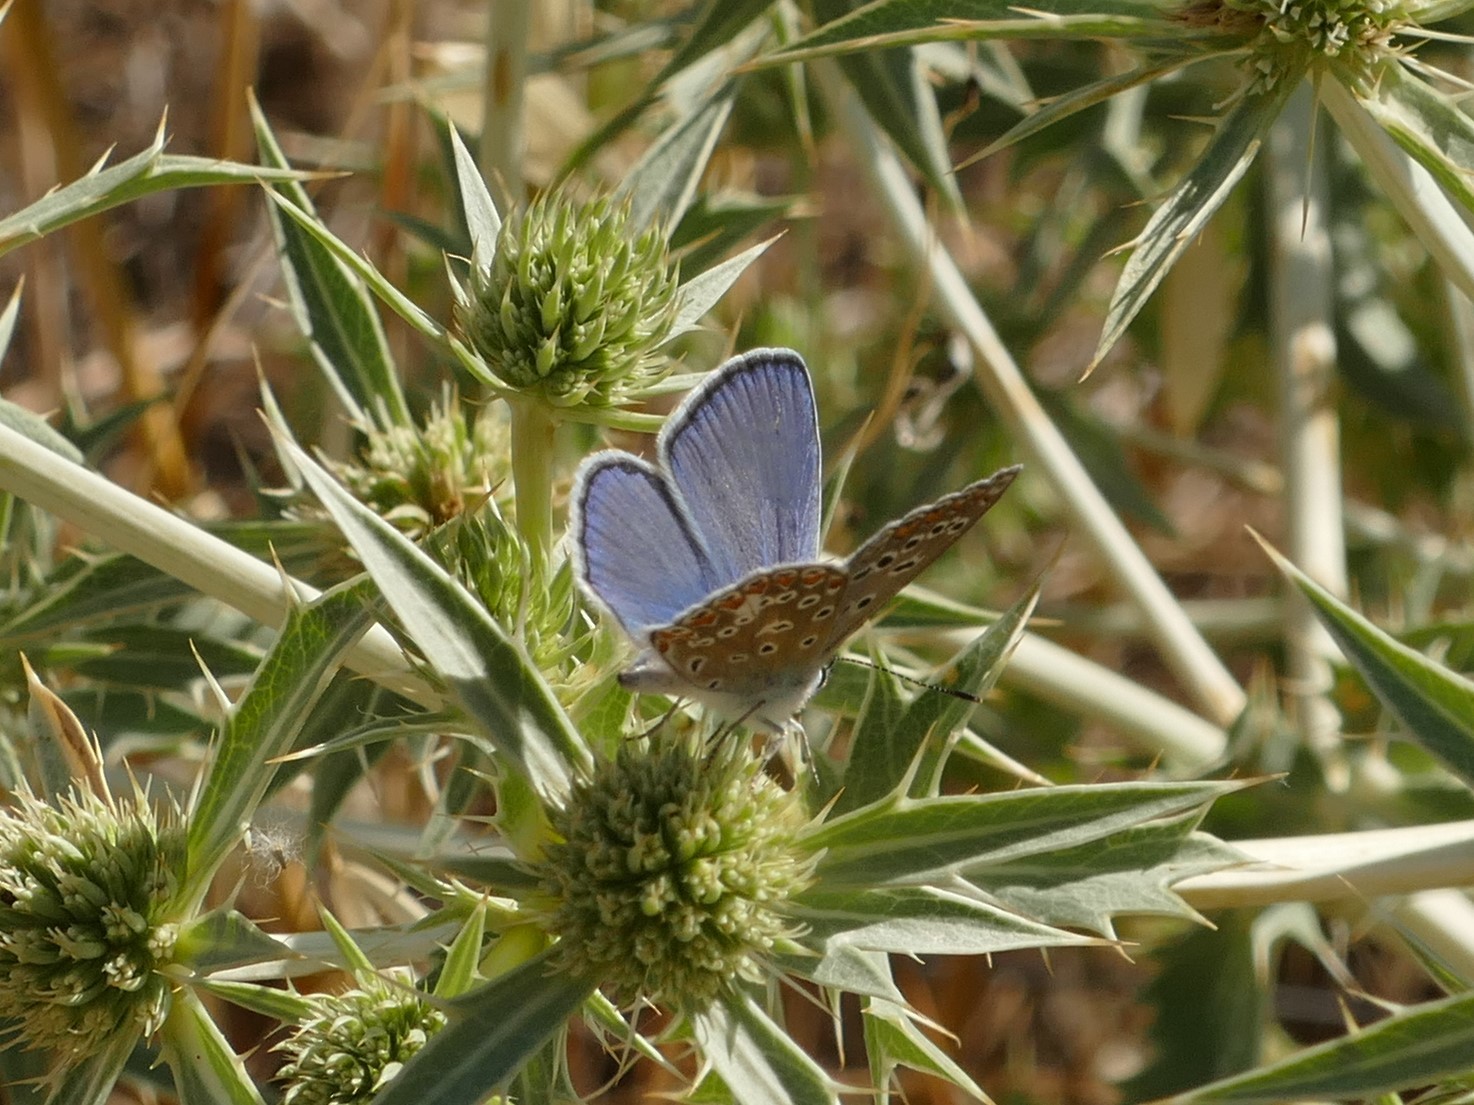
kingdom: Animalia
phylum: Arthropoda
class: Insecta
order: Lepidoptera
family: Lycaenidae
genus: Polyommatus
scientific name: Polyommatus icarus
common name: Common blue
